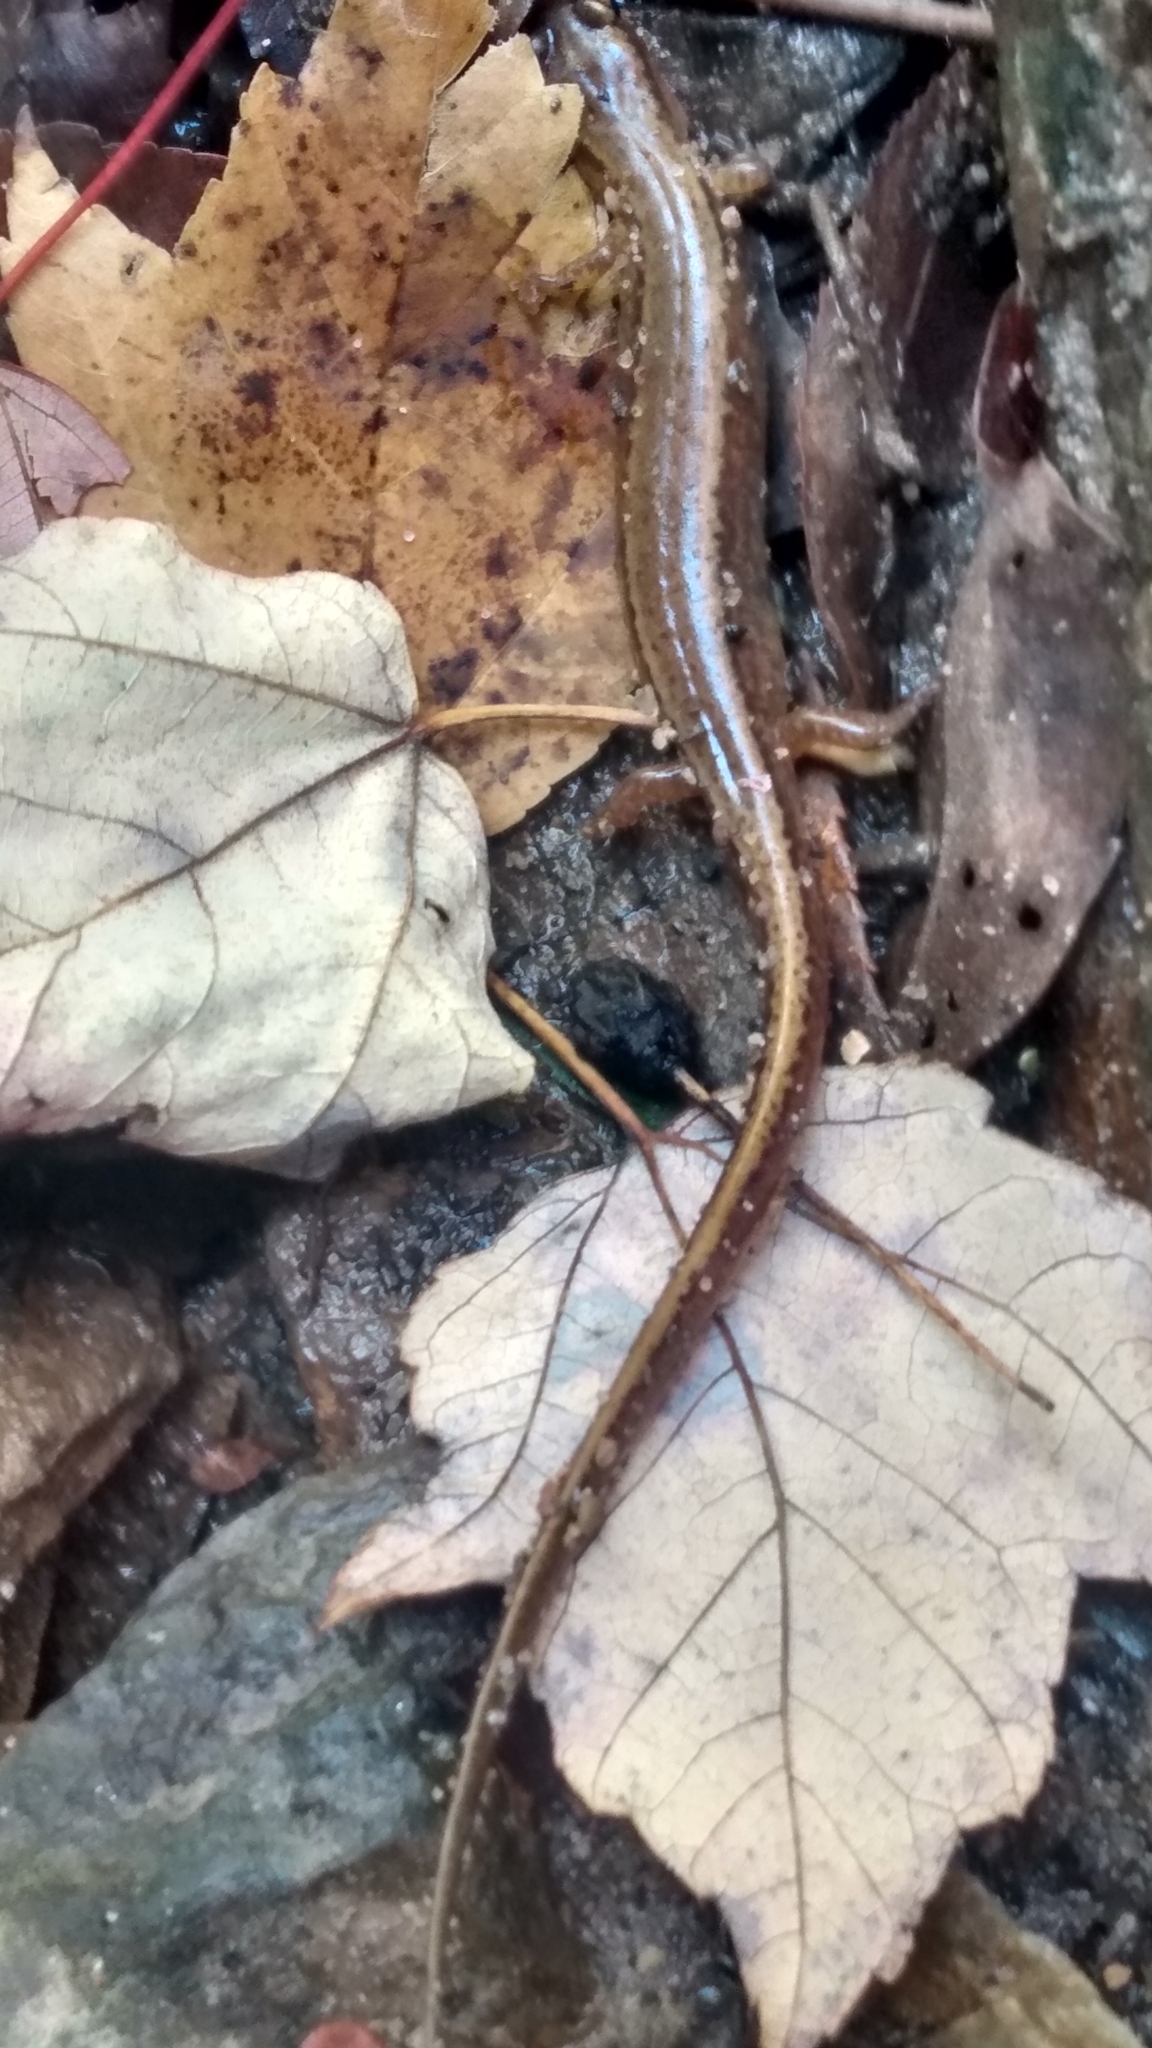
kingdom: Animalia
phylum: Chordata
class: Amphibia
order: Caudata
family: Plethodontidae
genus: Eurycea
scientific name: Eurycea bislineata
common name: Northern two-lined salamander
